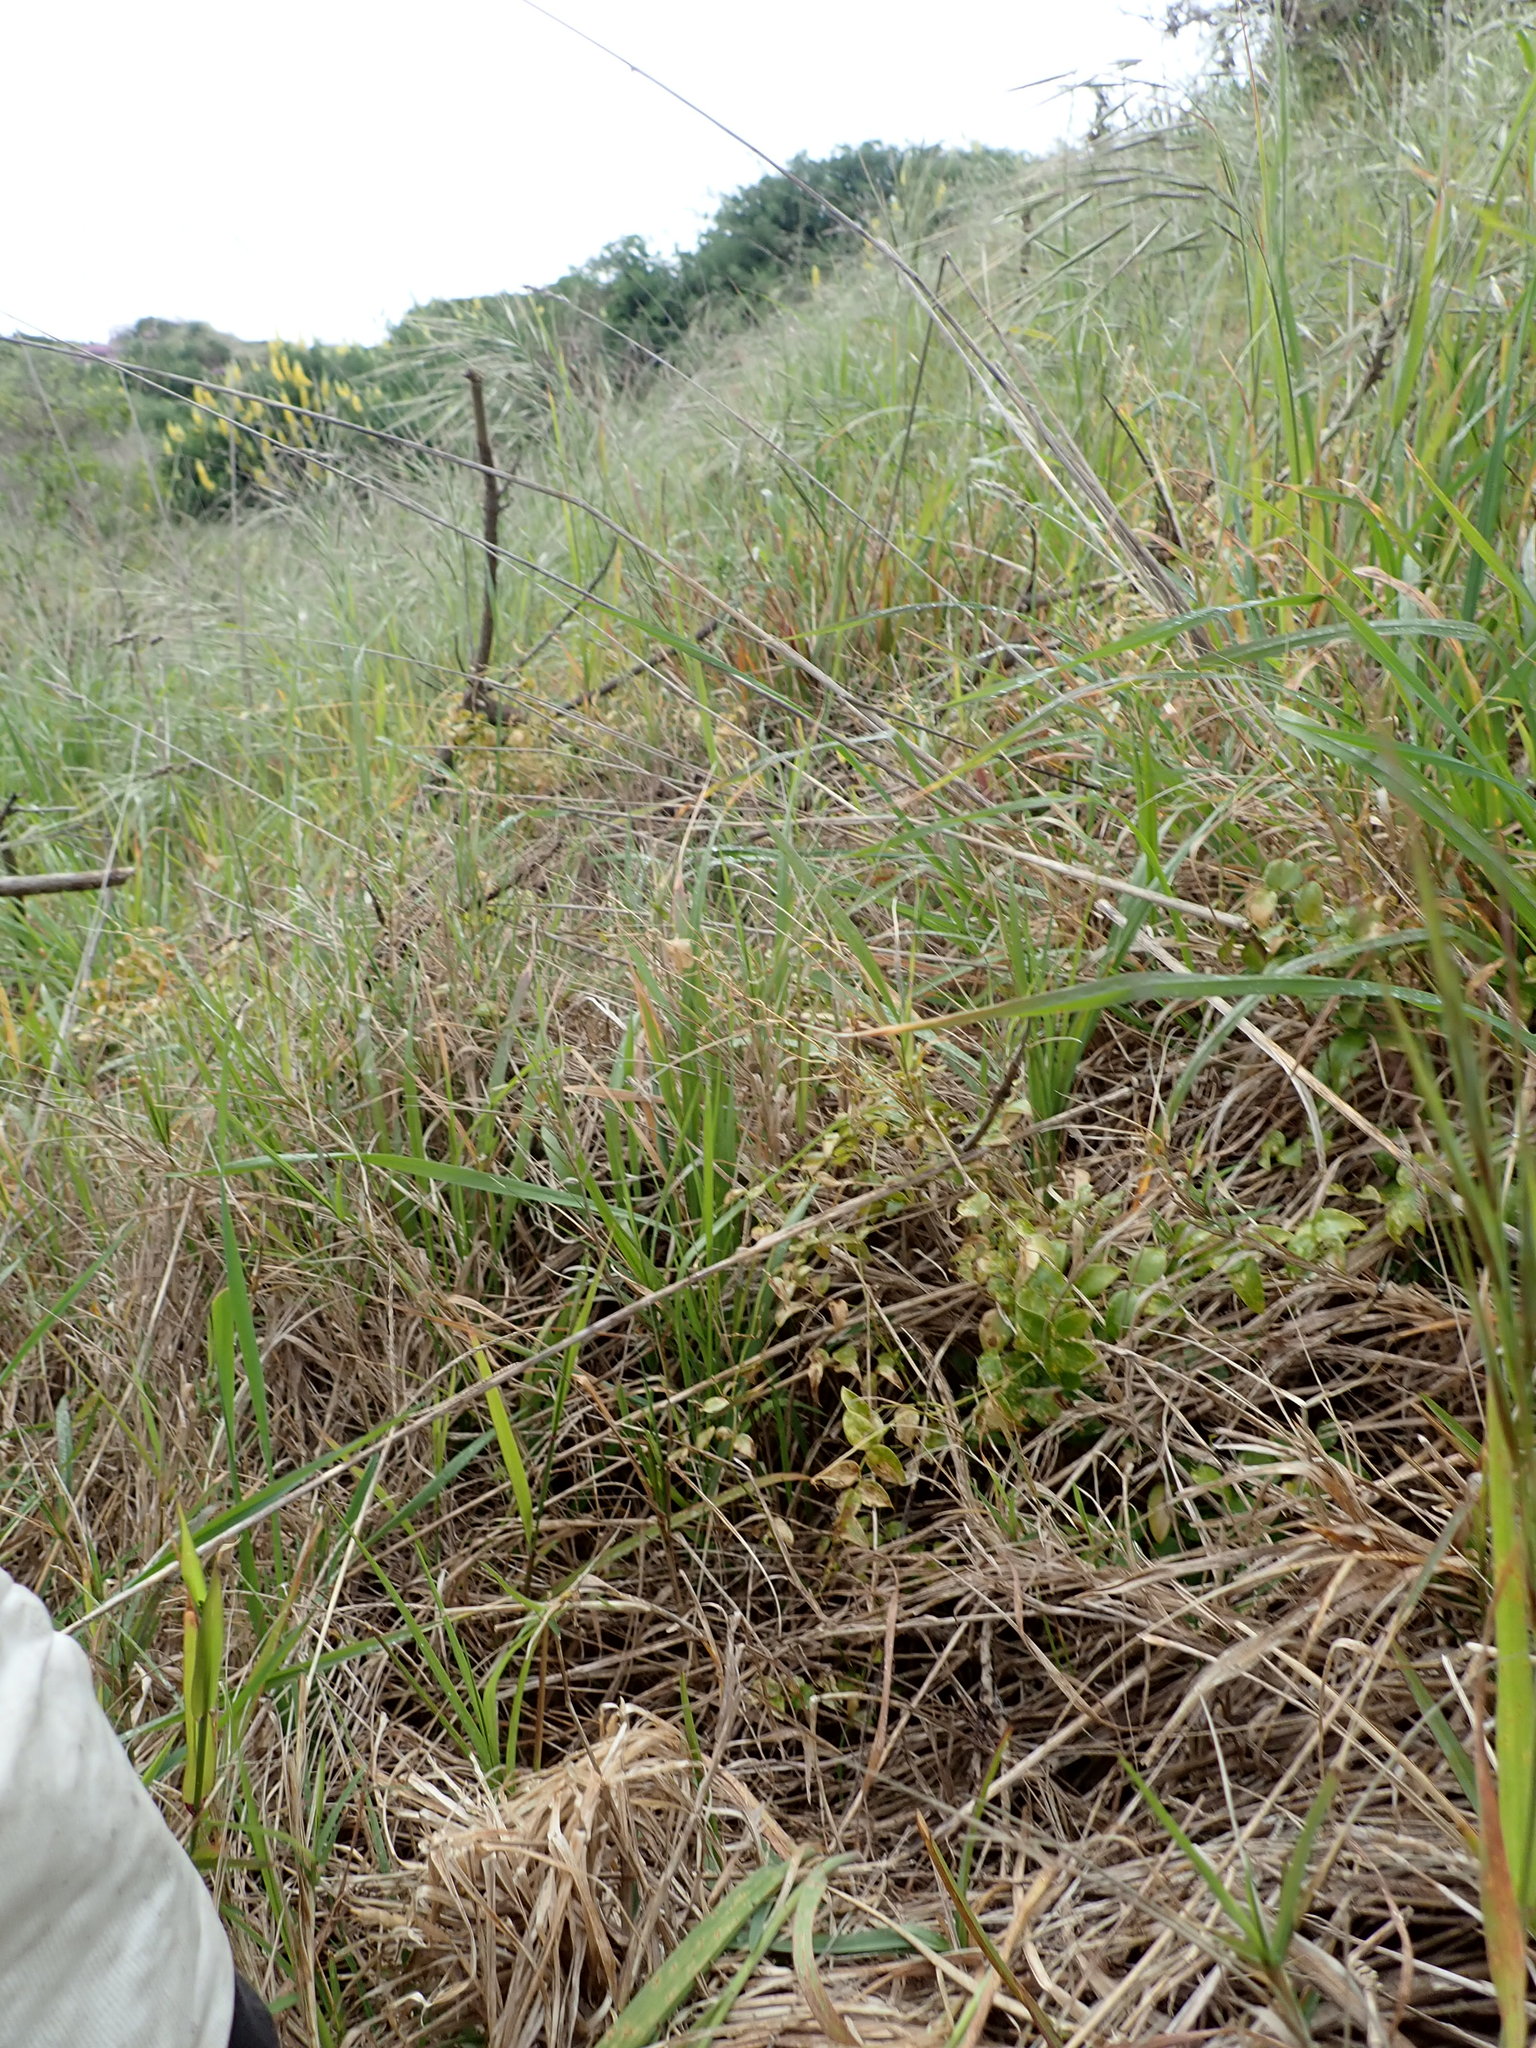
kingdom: Plantae
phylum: Tracheophyta
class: Liliopsida
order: Asparagales
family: Asparagaceae
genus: Asparagus
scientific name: Asparagus asparagoides
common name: African asparagus fern
